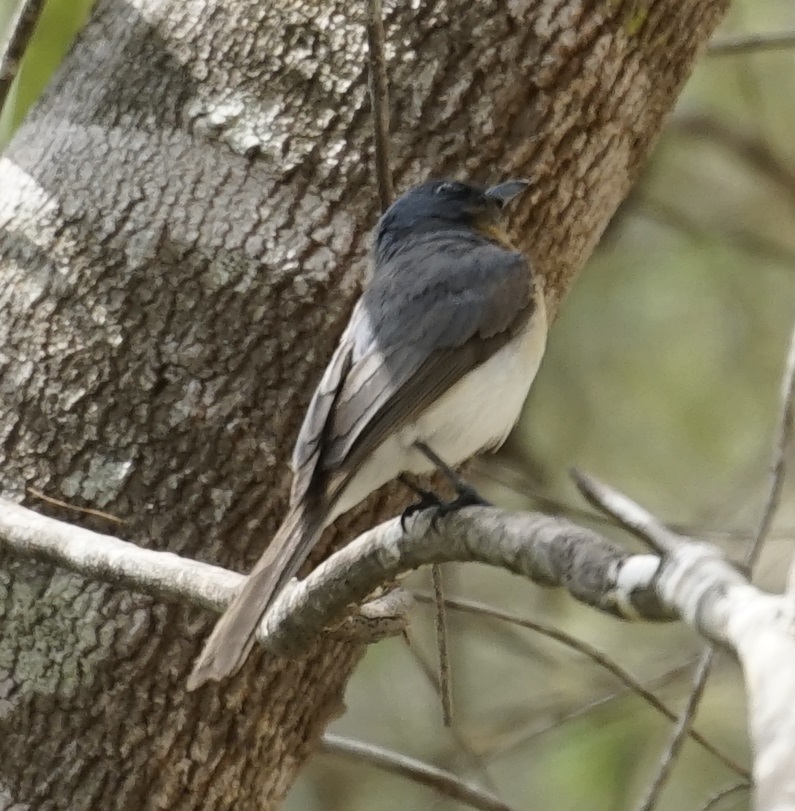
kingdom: Animalia
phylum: Chordata
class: Aves
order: Passeriformes
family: Monarchidae
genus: Myiagra
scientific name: Myiagra rubecula
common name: Leaden flycatcher
